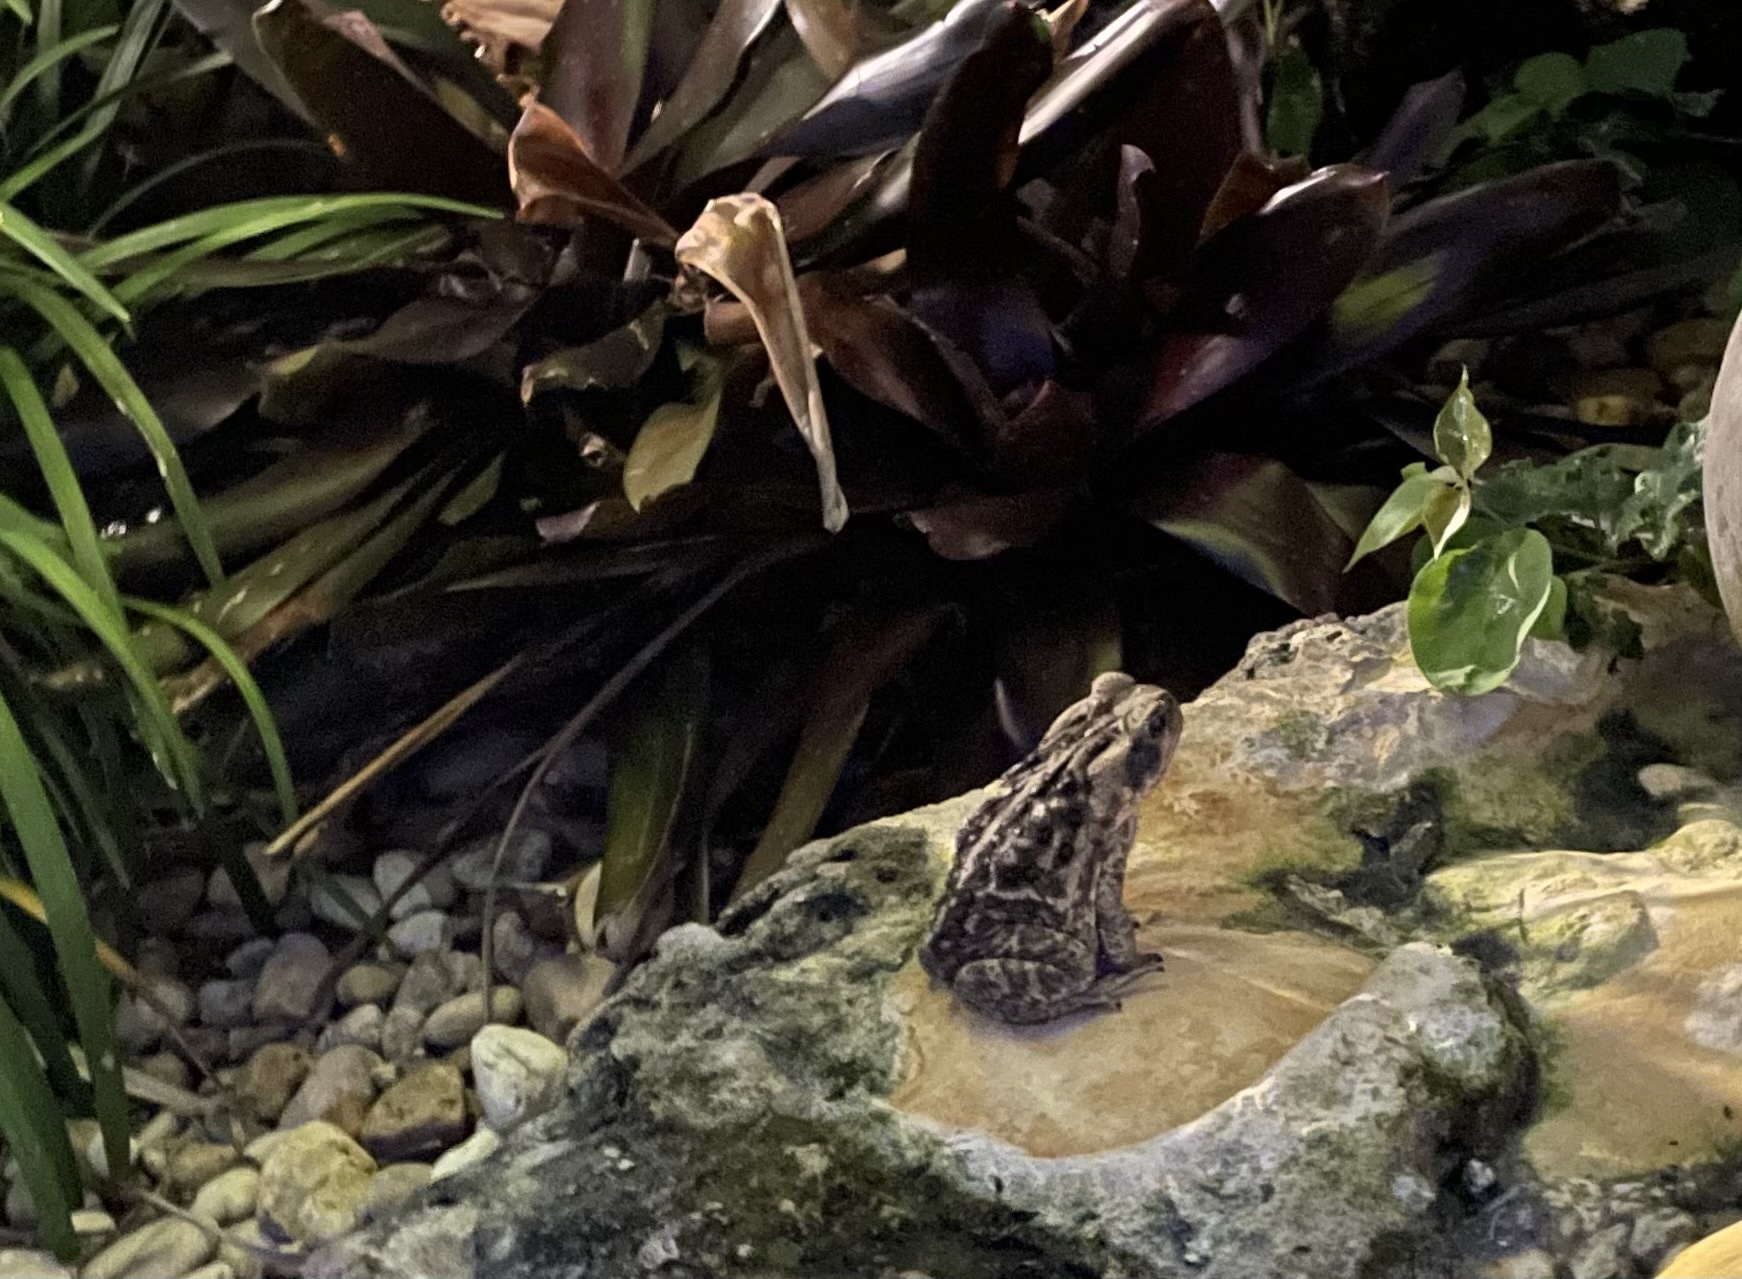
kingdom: Animalia
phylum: Chordata
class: Amphibia
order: Anura
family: Bufonidae
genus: Rhinella
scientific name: Rhinella marina
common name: Cane toad
